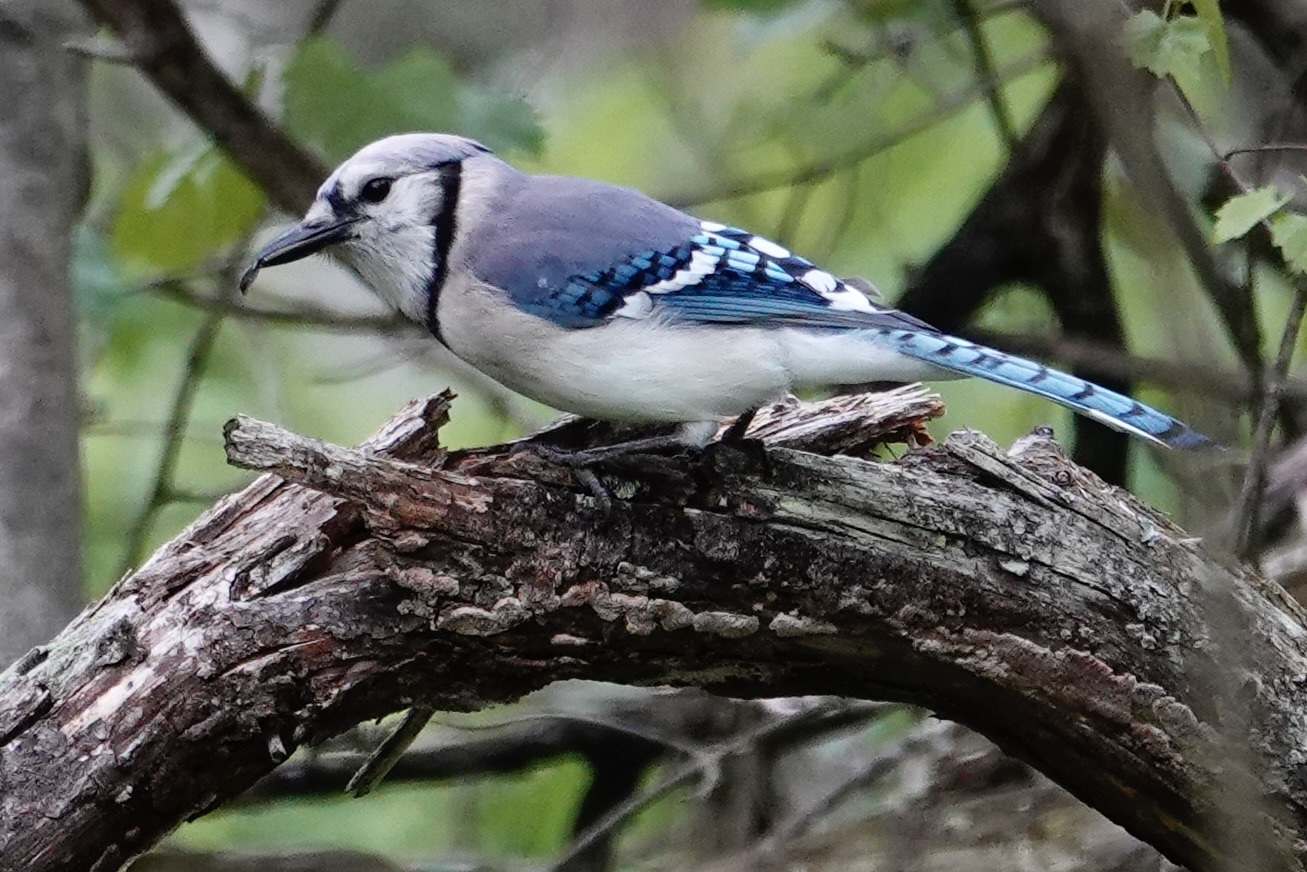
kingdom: Animalia
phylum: Chordata
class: Aves
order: Passeriformes
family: Corvidae
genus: Cyanocitta
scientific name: Cyanocitta cristata
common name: Blue jay
